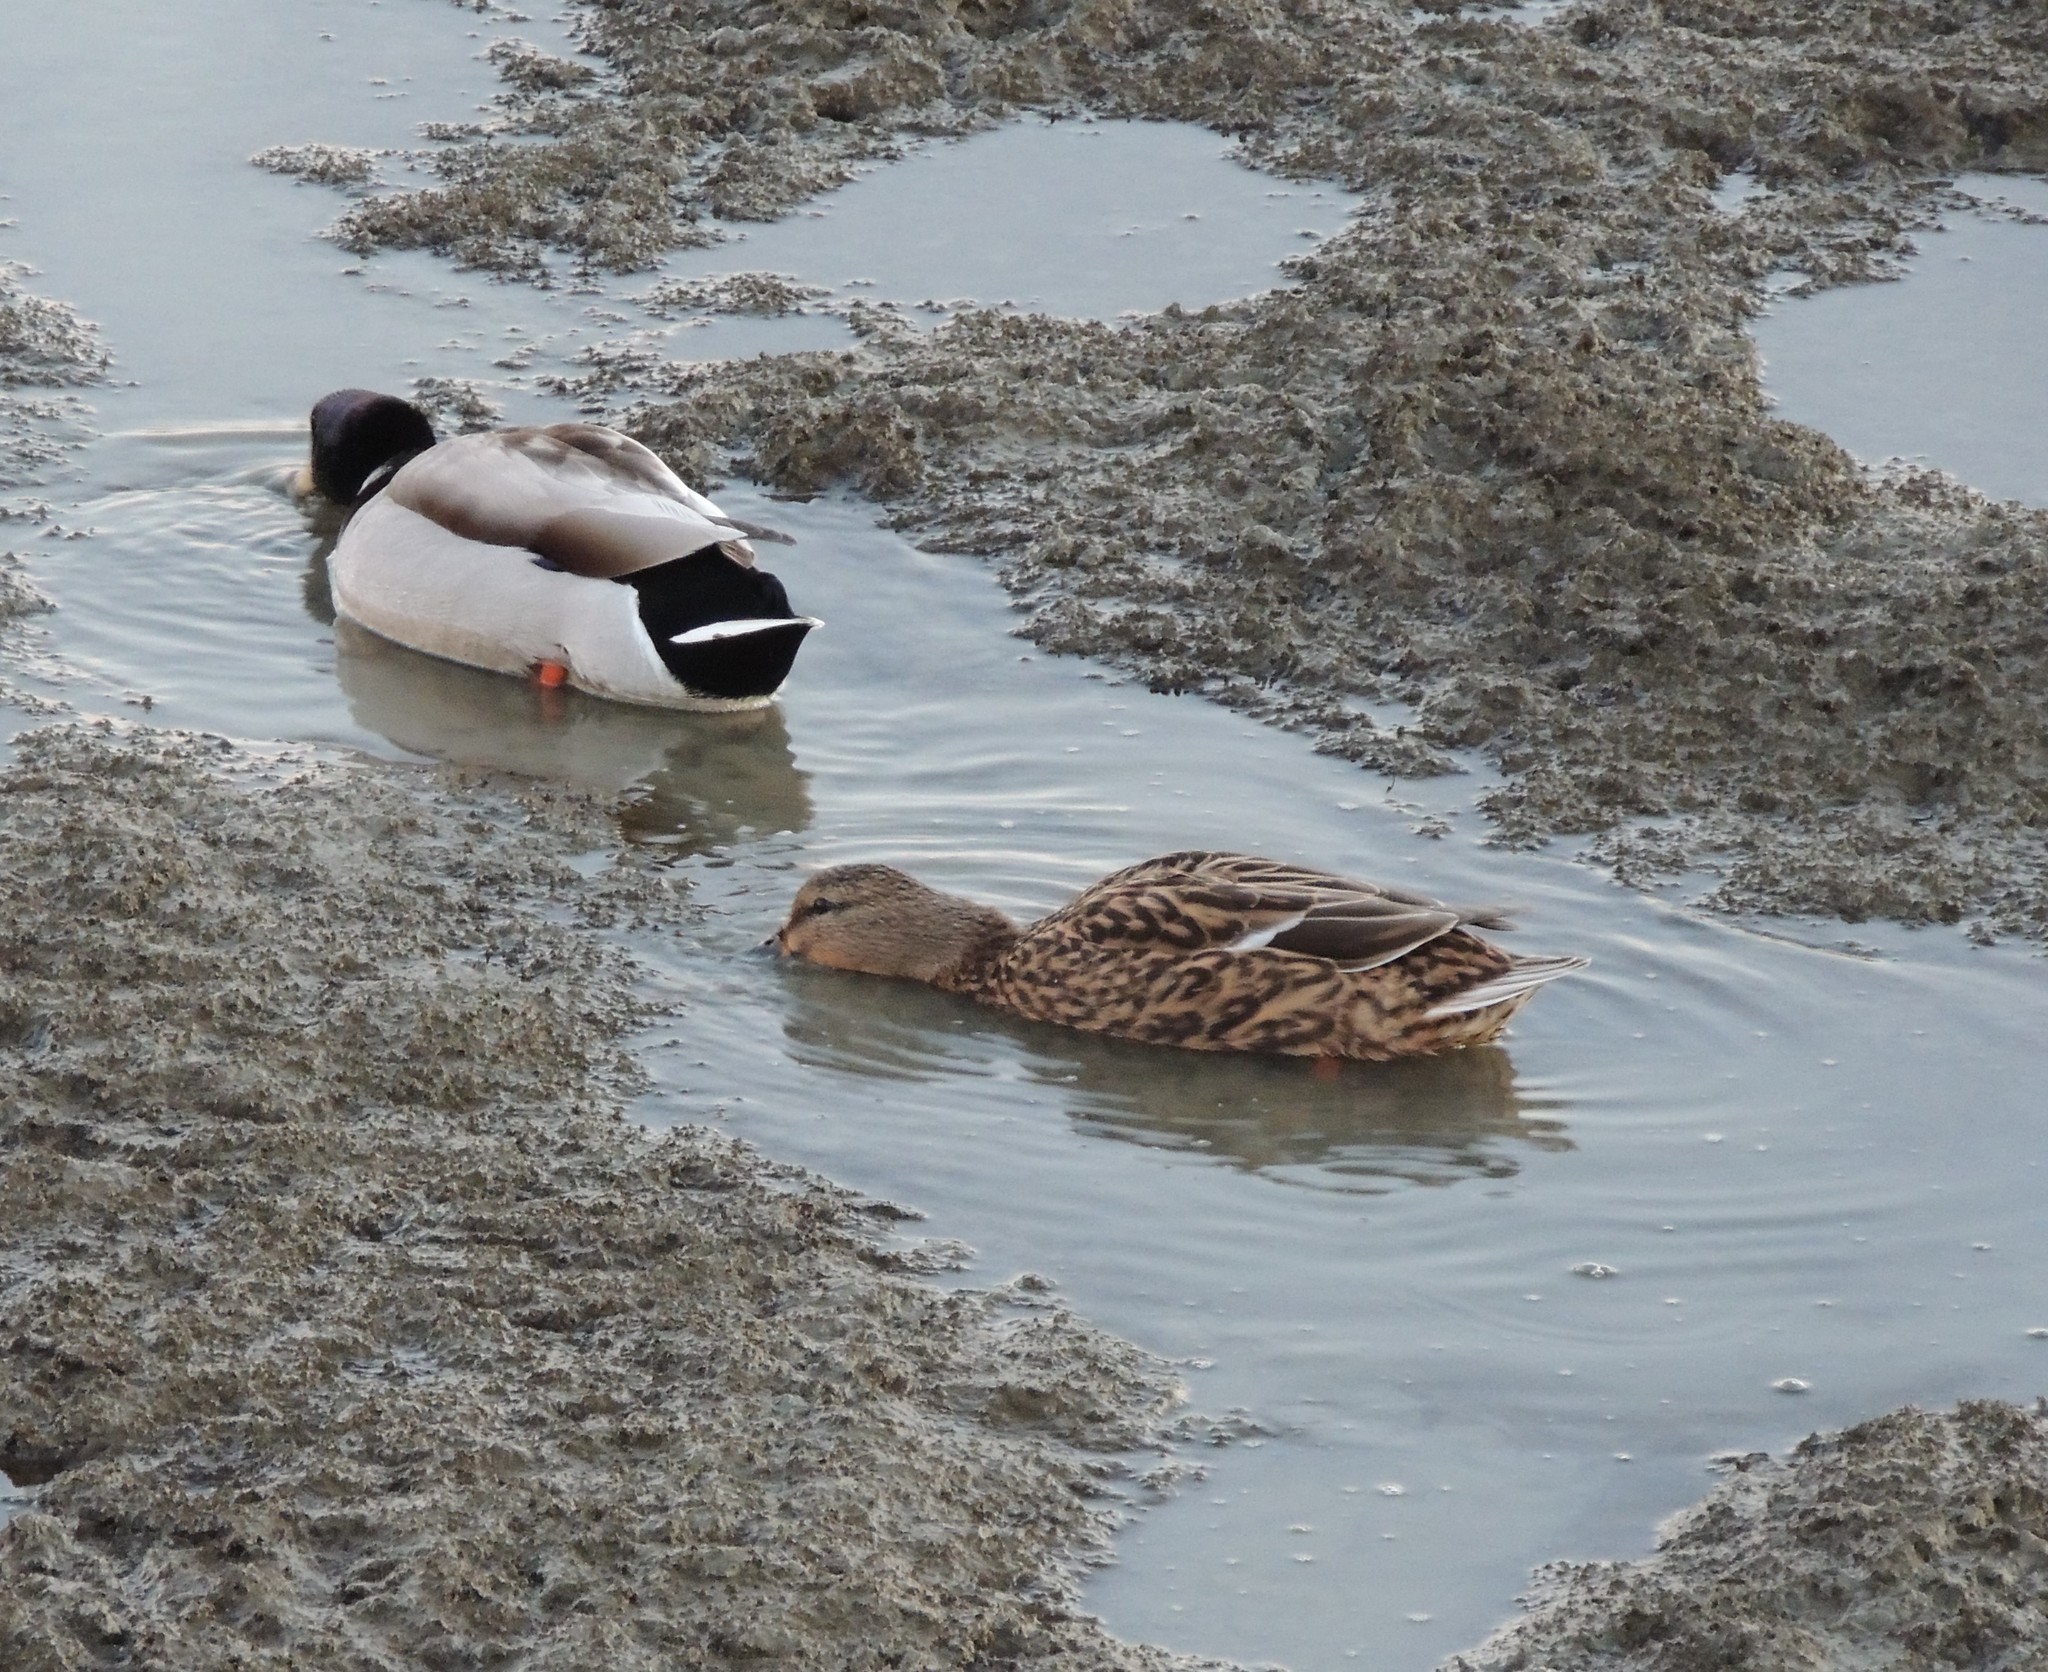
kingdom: Animalia
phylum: Chordata
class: Aves
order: Anseriformes
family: Anatidae
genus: Anas
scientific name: Anas platyrhynchos
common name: Mallard
